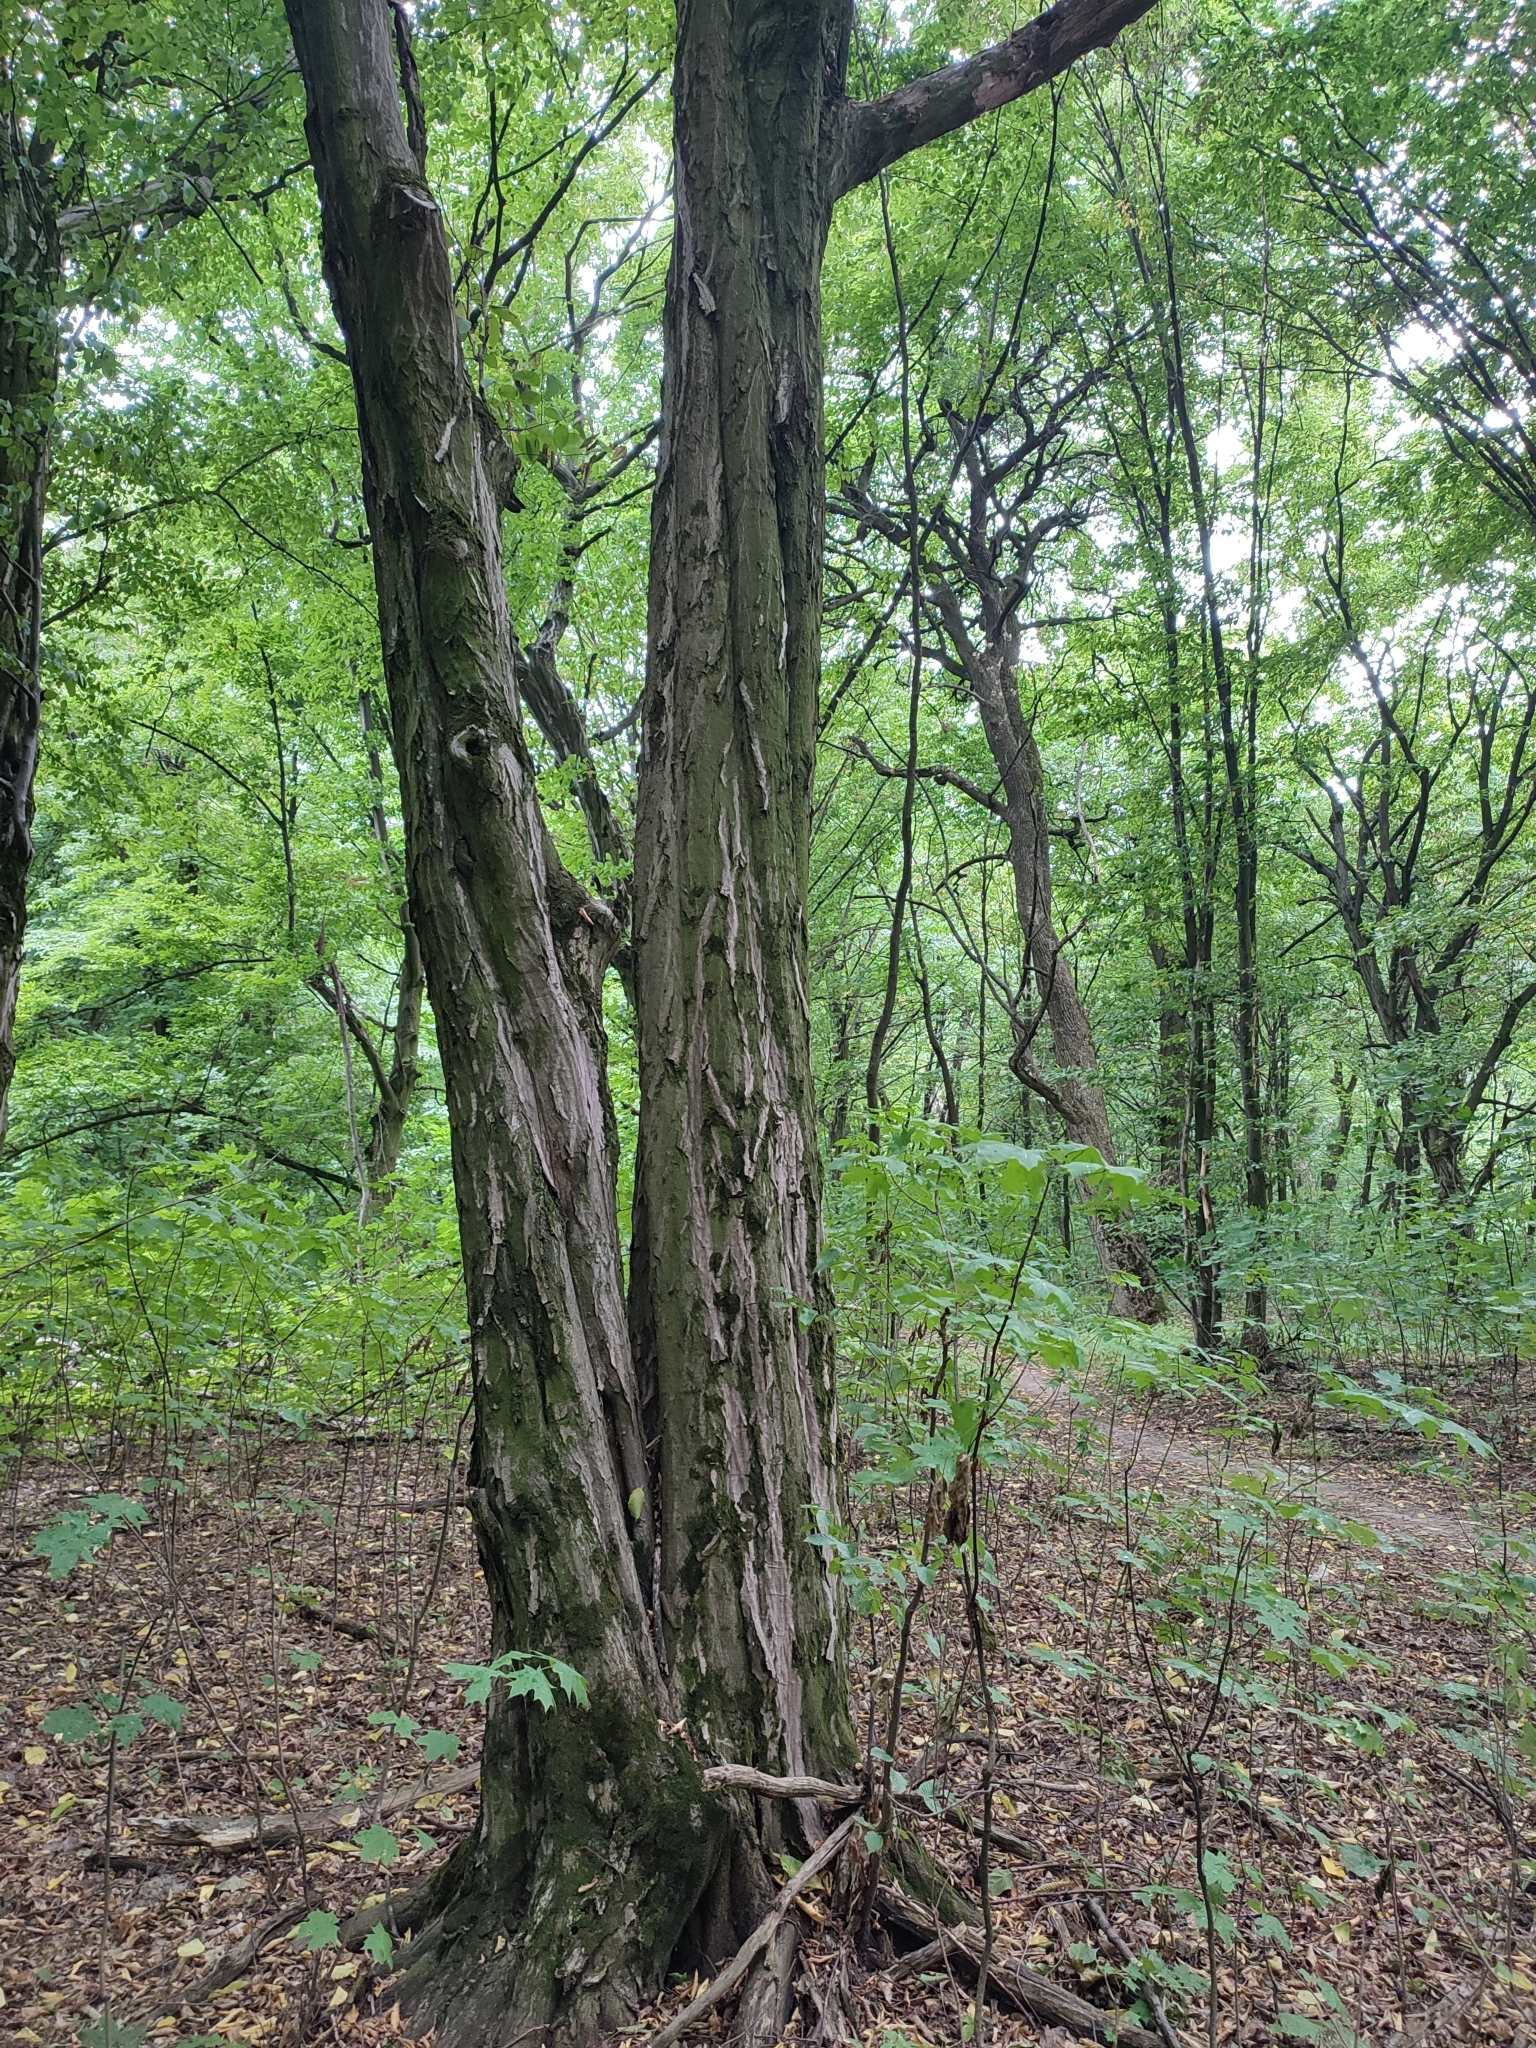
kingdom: Plantae
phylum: Tracheophyta
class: Magnoliopsida
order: Fagales
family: Betulaceae
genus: Carpinus
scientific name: Carpinus betulus
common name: Hornbeam
